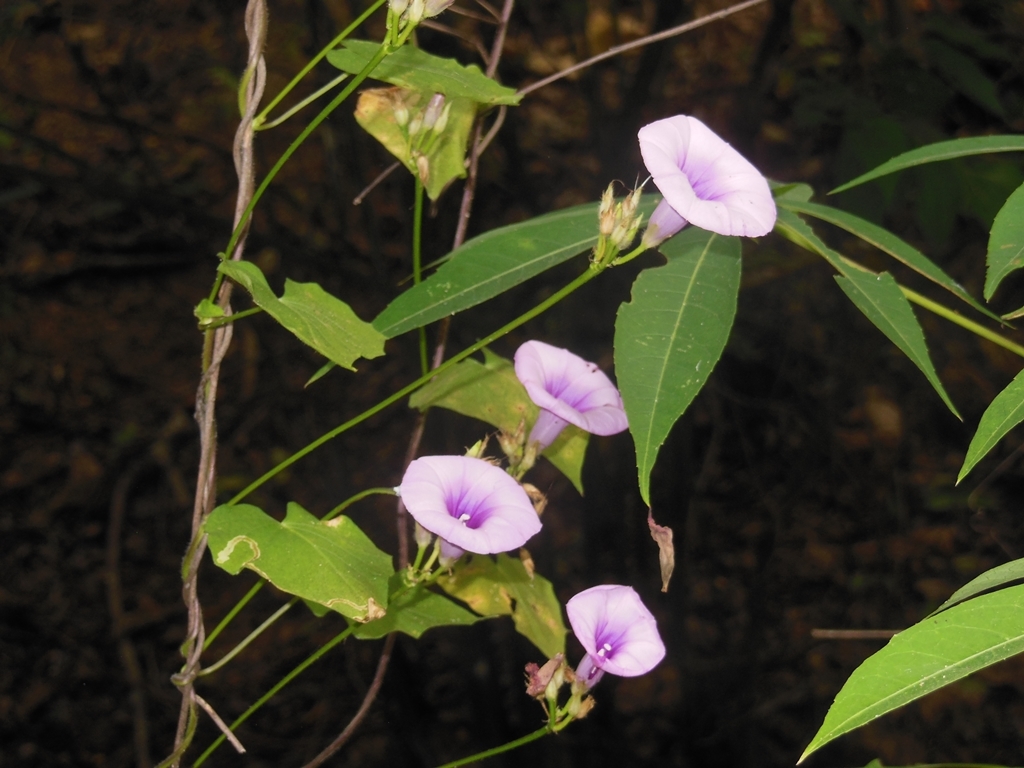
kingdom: Plantae
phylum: Tracheophyta
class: Magnoliopsida
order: Solanales
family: Convolvulaceae
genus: Ipomoea
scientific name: Ipomoea trifida
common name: Cotton morningglory
